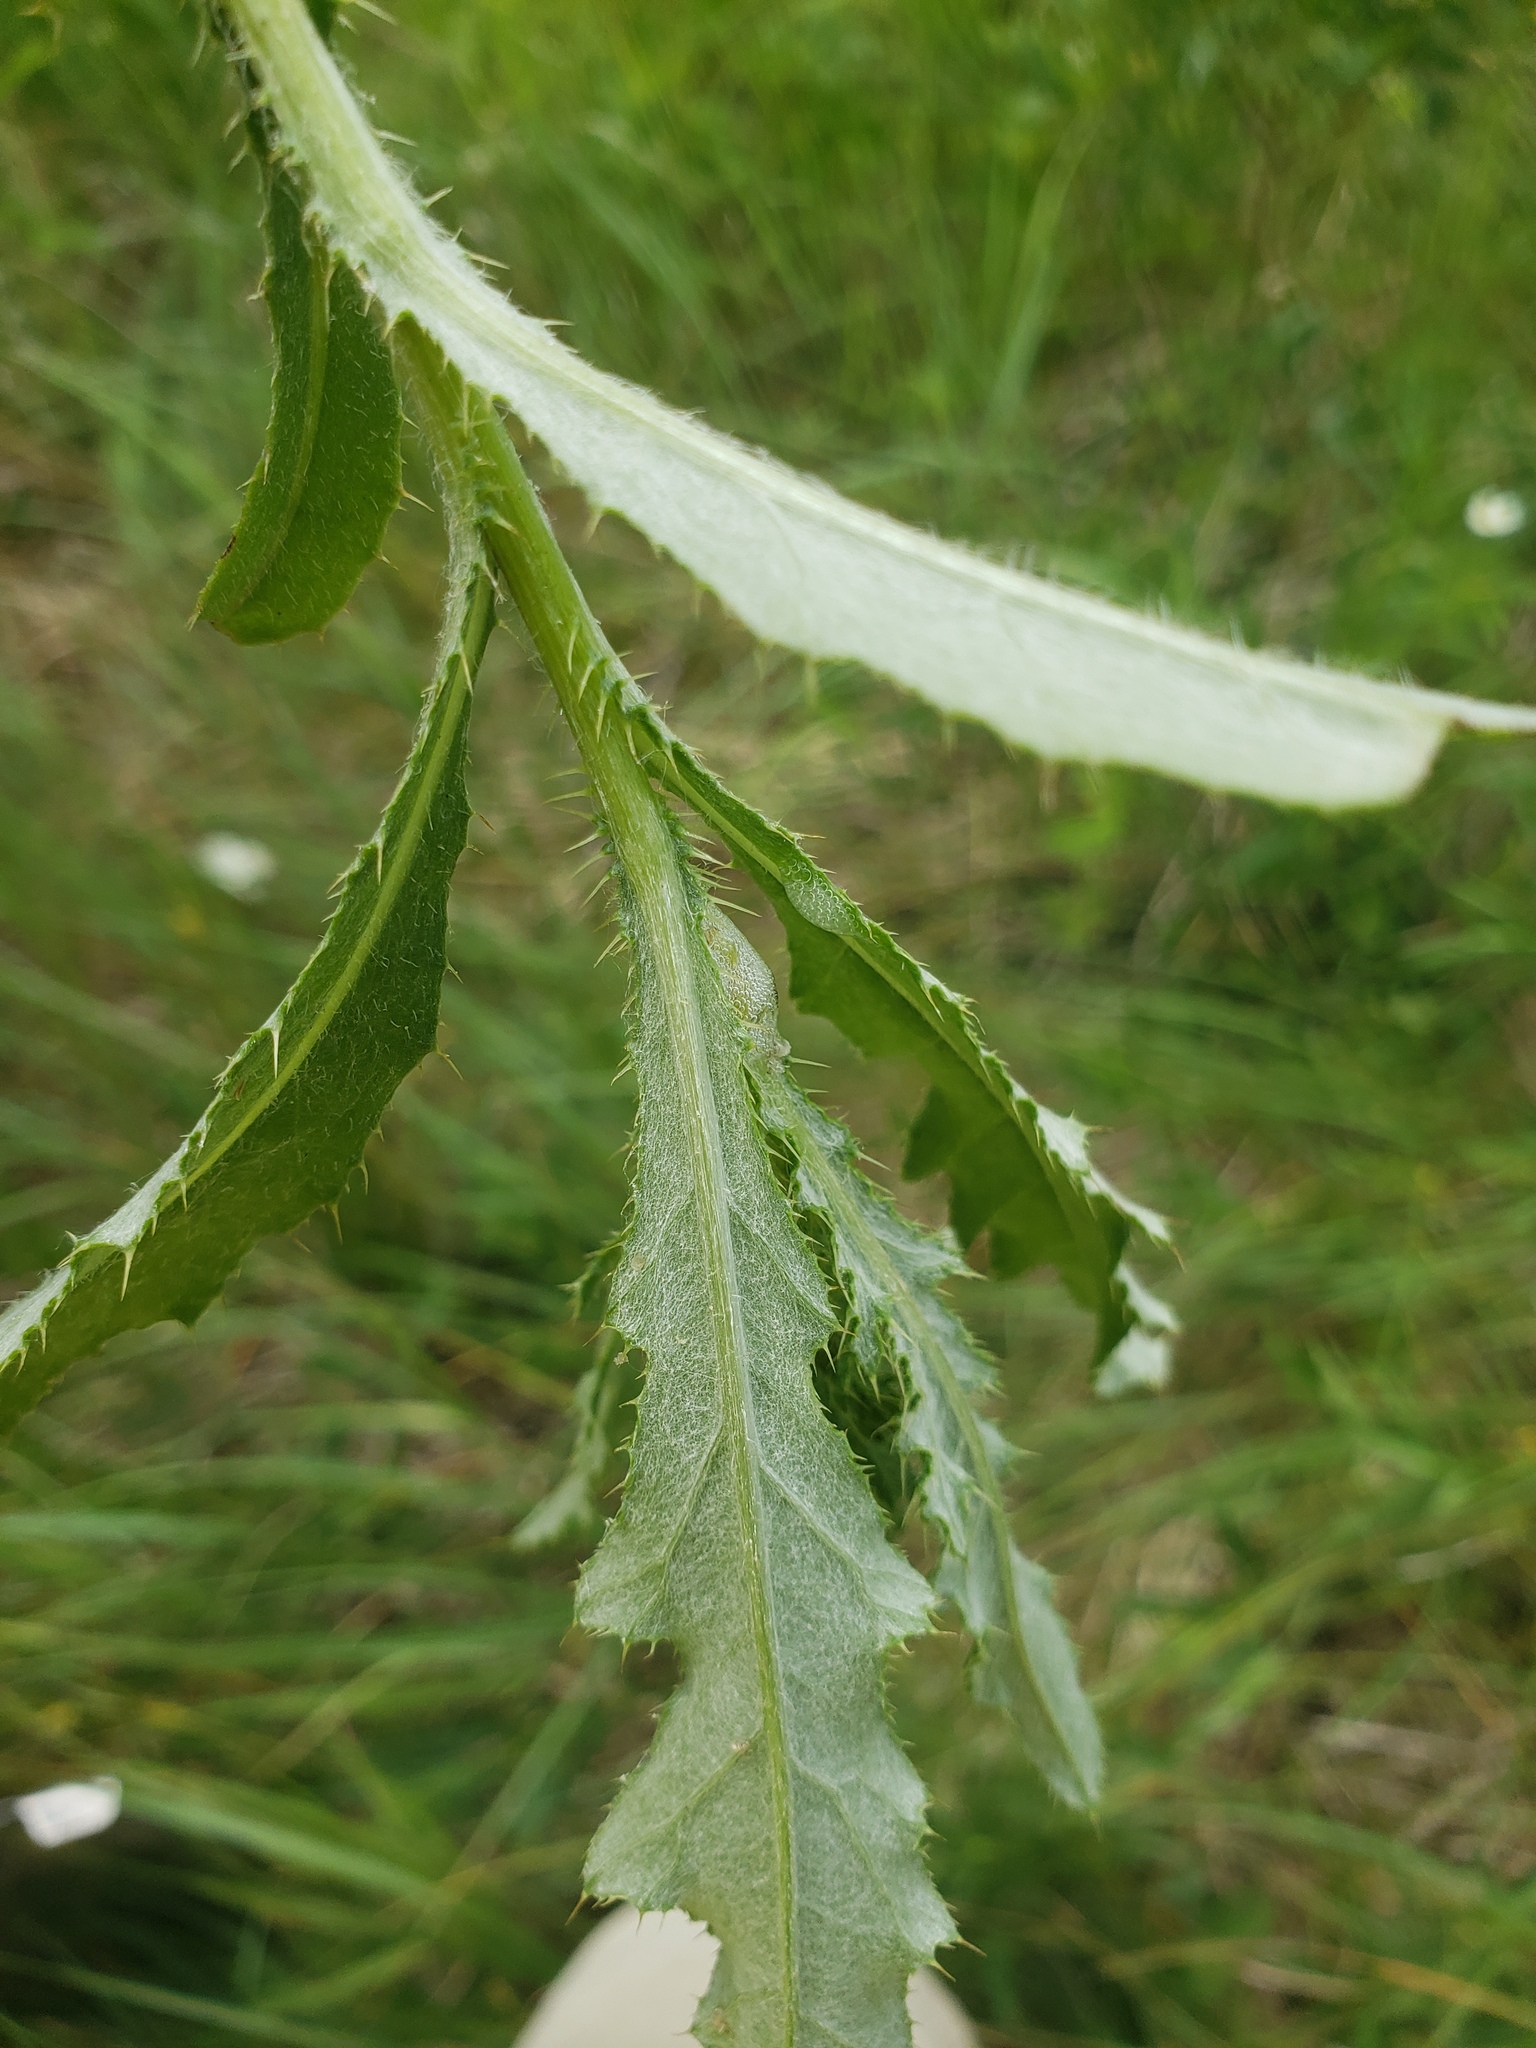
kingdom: Plantae
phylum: Tracheophyta
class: Magnoliopsida
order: Asterales
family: Asteraceae
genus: Cirsium
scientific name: Cirsium arvense
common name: Creeping thistle
